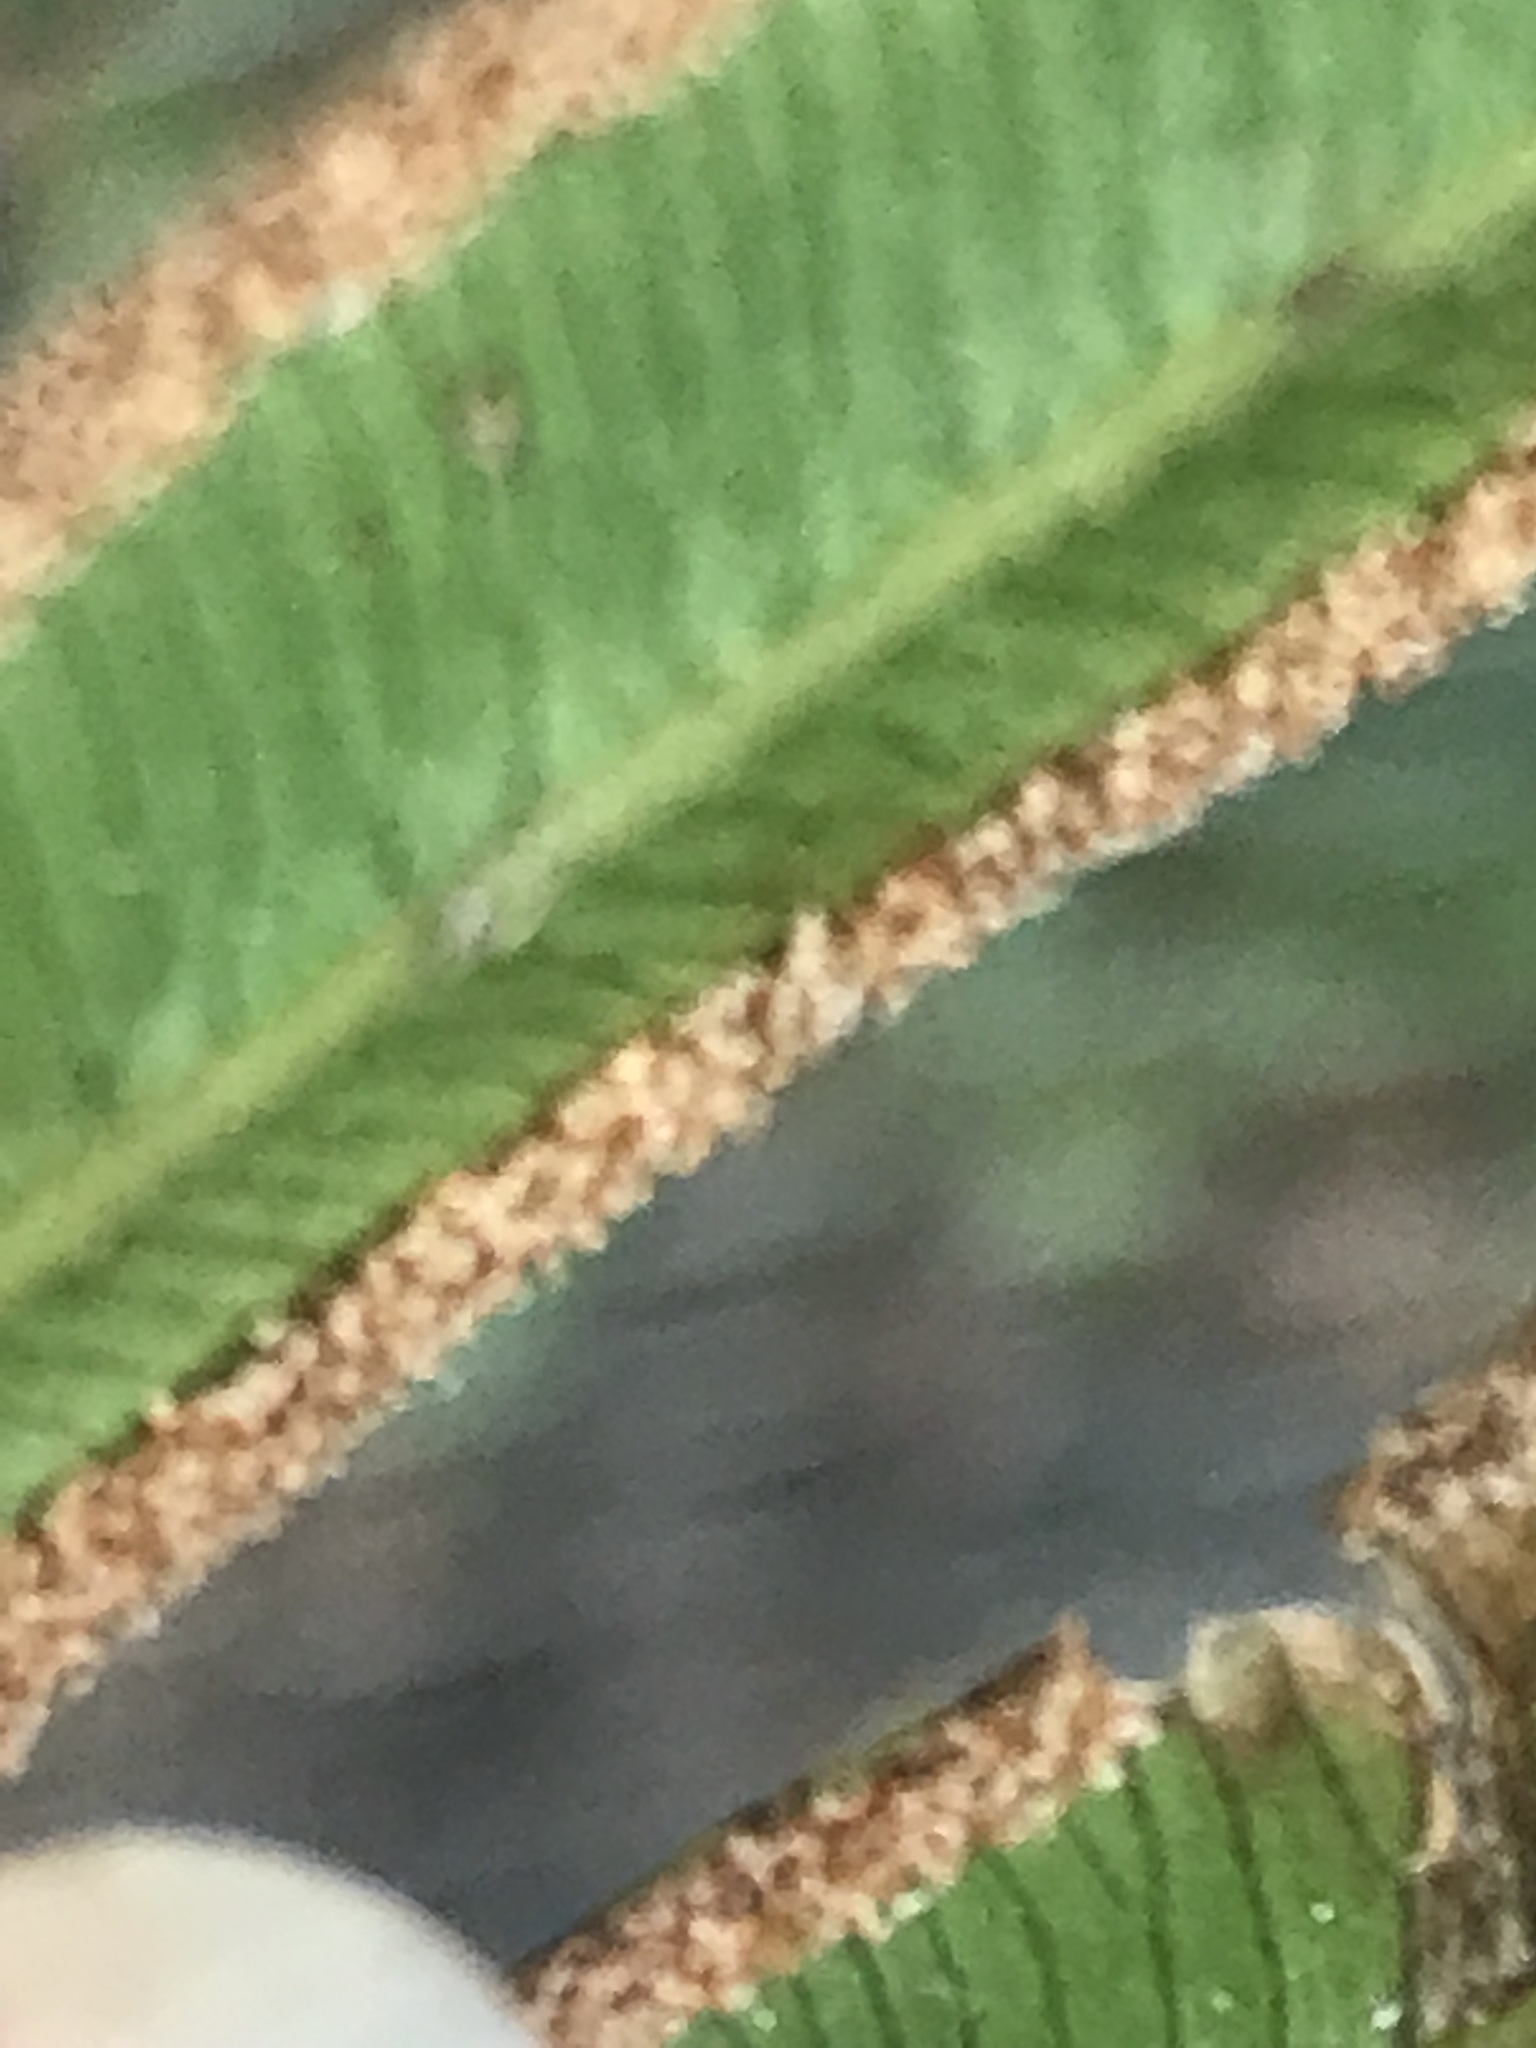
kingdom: Plantae
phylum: Tracheophyta
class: Polypodiopsida
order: Polypodiales
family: Pteridaceae
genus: Pteris
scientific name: Pteris vittata
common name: Ladder brake
